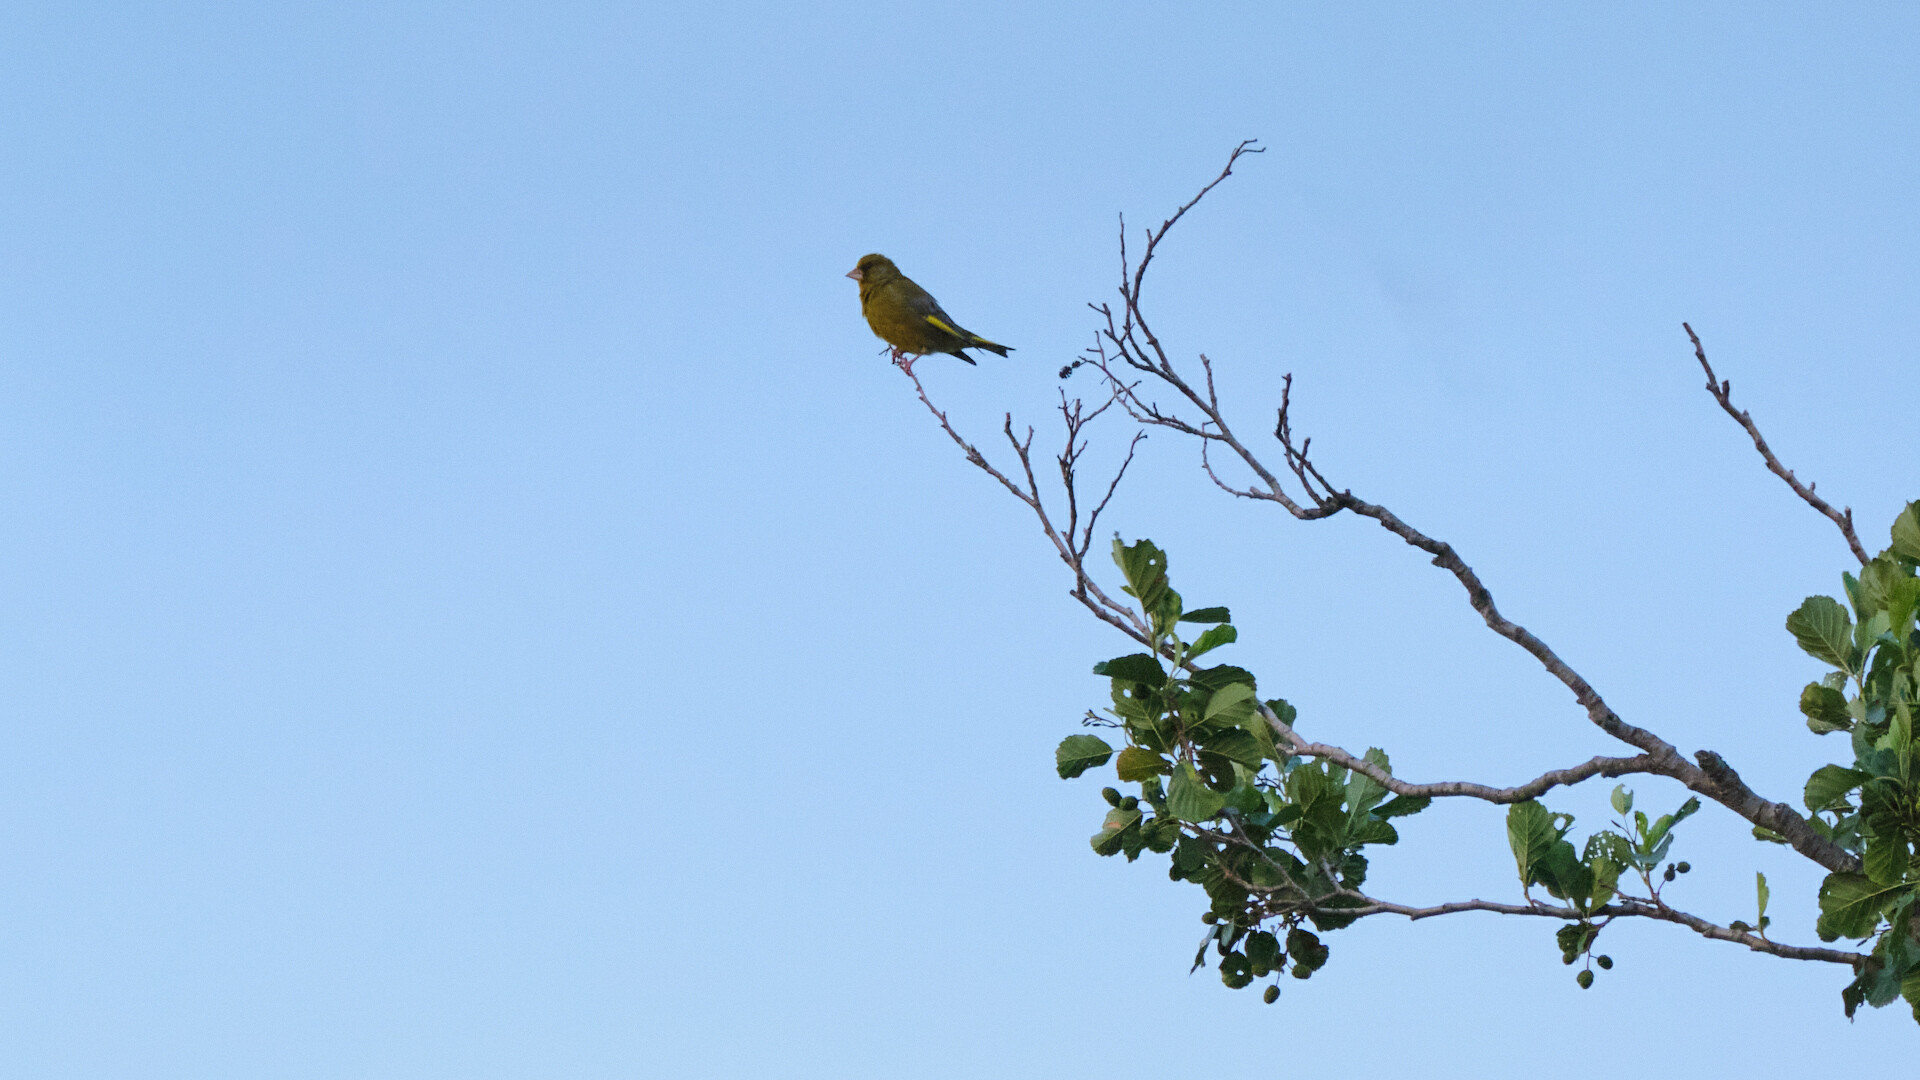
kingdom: Plantae
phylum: Tracheophyta
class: Liliopsida
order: Poales
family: Poaceae
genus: Chloris
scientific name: Chloris chloris
